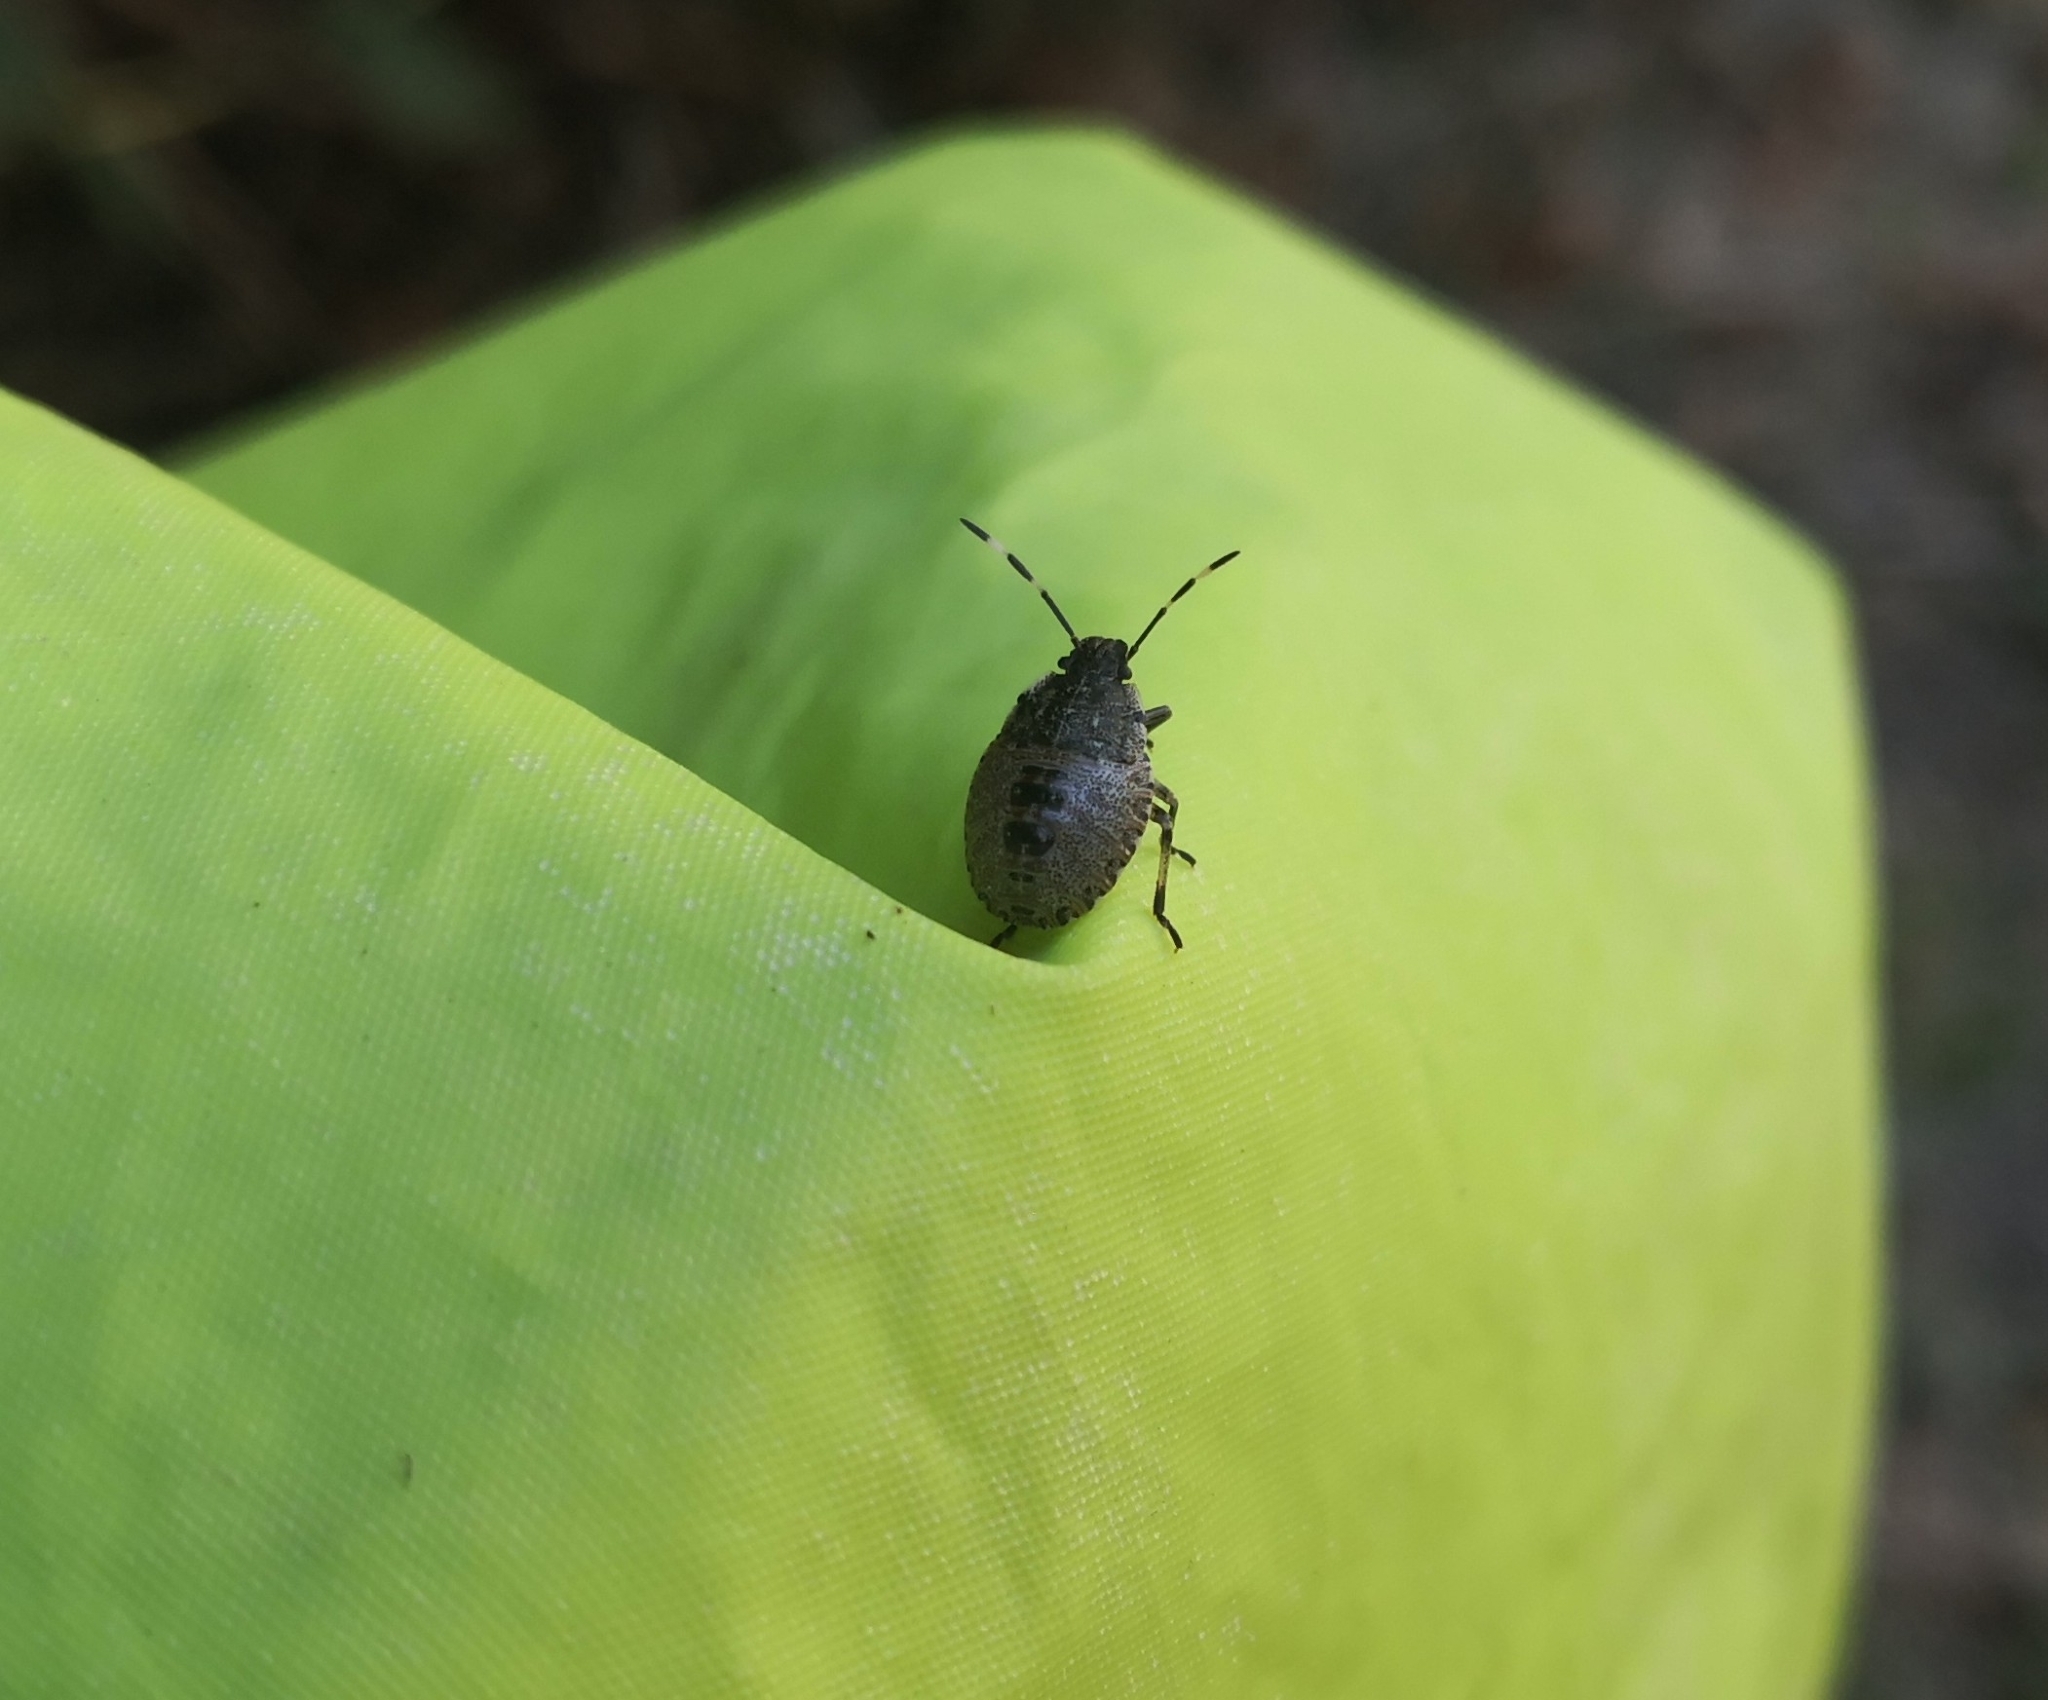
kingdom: Animalia
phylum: Arthropoda
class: Insecta
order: Hemiptera
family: Pentatomidae
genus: Rhaphigaster
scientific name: Rhaphigaster nebulosa
